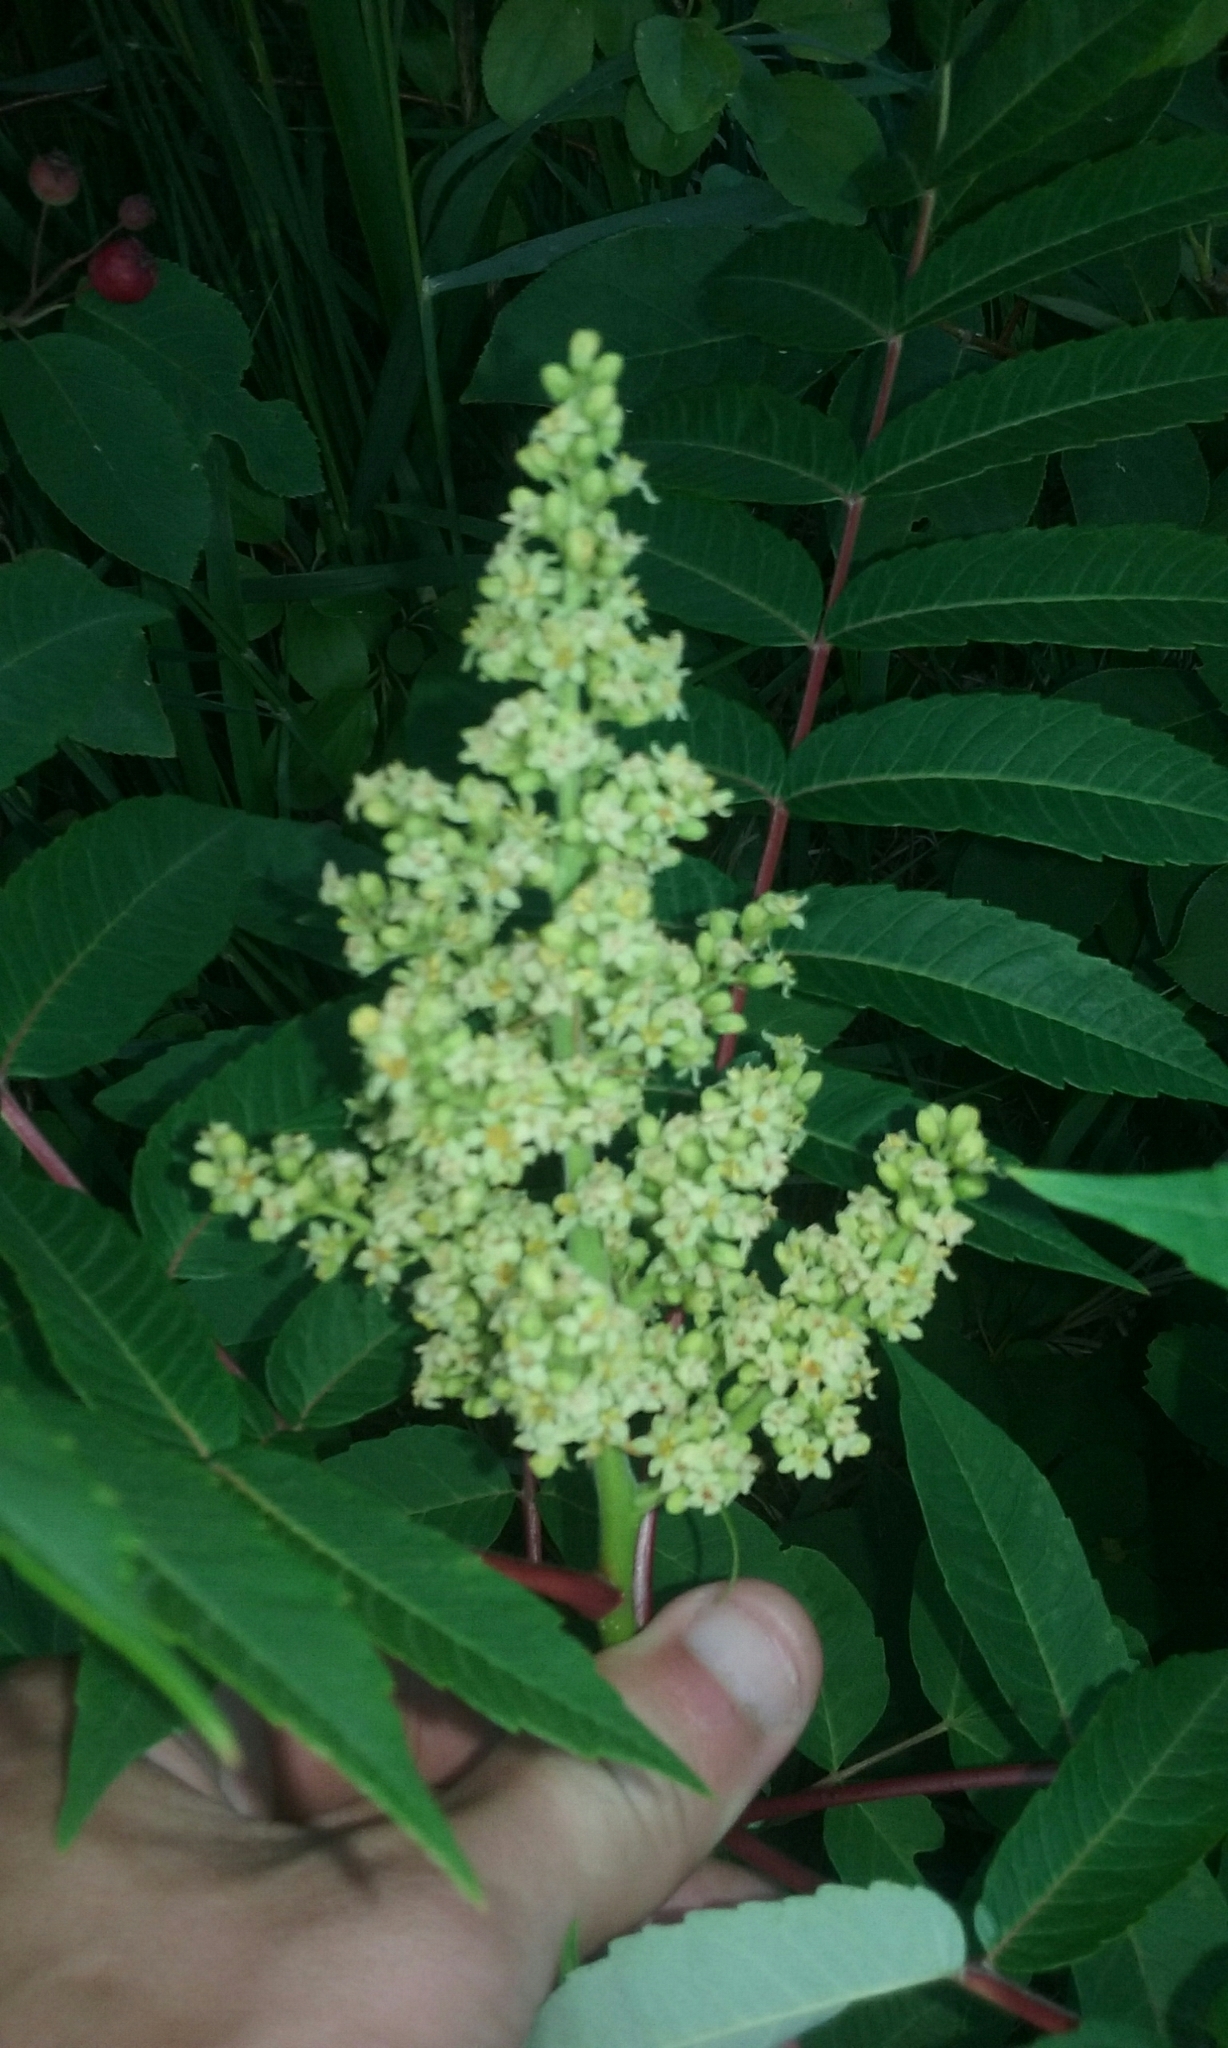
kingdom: Plantae
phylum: Tracheophyta
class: Magnoliopsida
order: Sapindales
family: Anacardiaceae
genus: Rhus
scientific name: Rhus glabra
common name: Scarlet sumac
